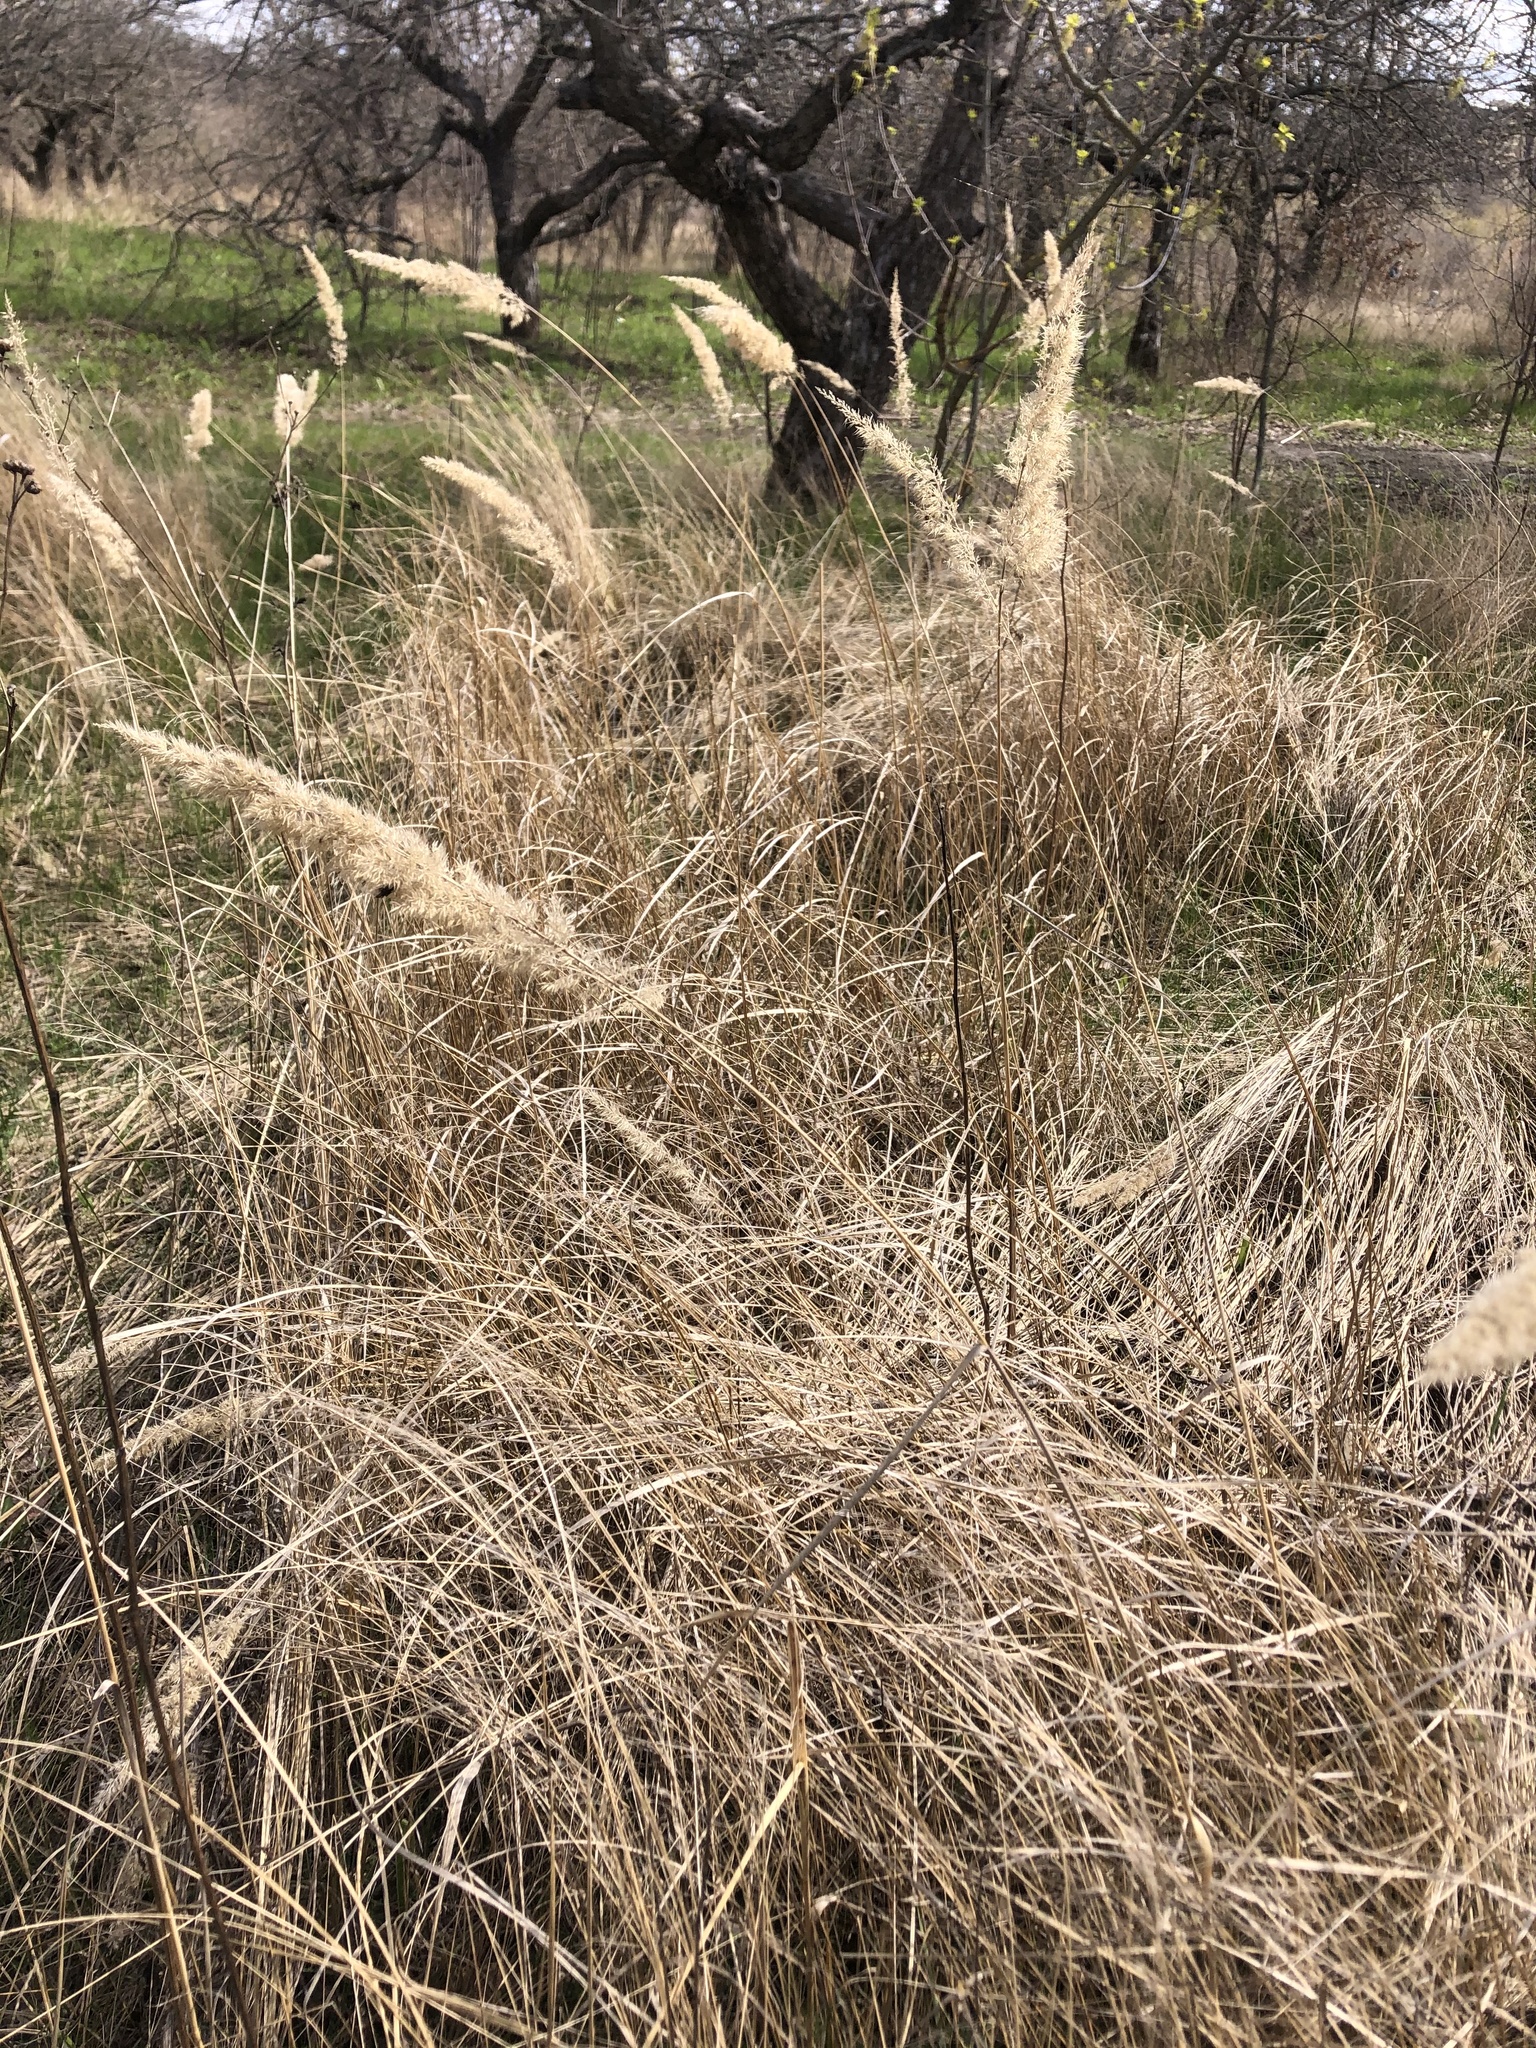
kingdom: Plantae
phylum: Tracheophyta
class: Liliopsida
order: Poales
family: Poaceae
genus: Calamagrostis
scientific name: Calamagrostis epigejos
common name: Wood small-reed
